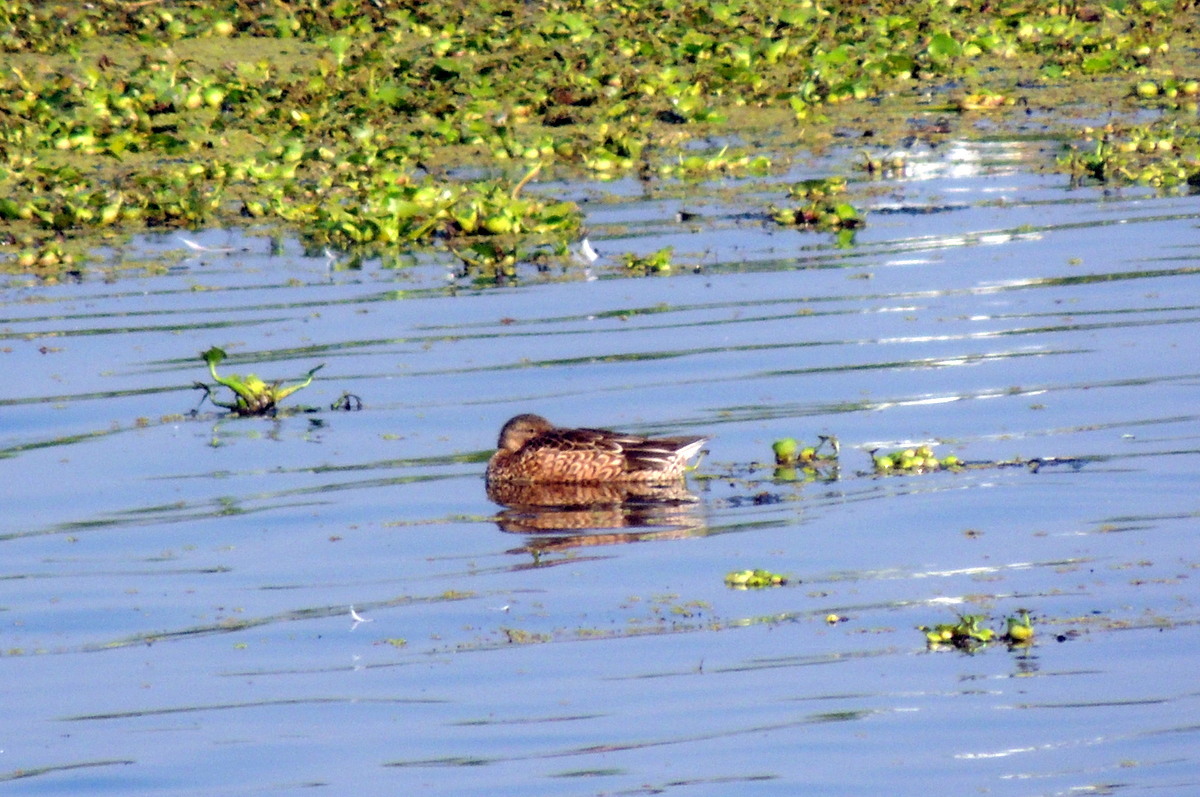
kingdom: Animalia
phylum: Chordata
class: Aves
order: Anseriformes
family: Anatidae
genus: Mareca
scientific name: Mareca strepera
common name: Gadwall
